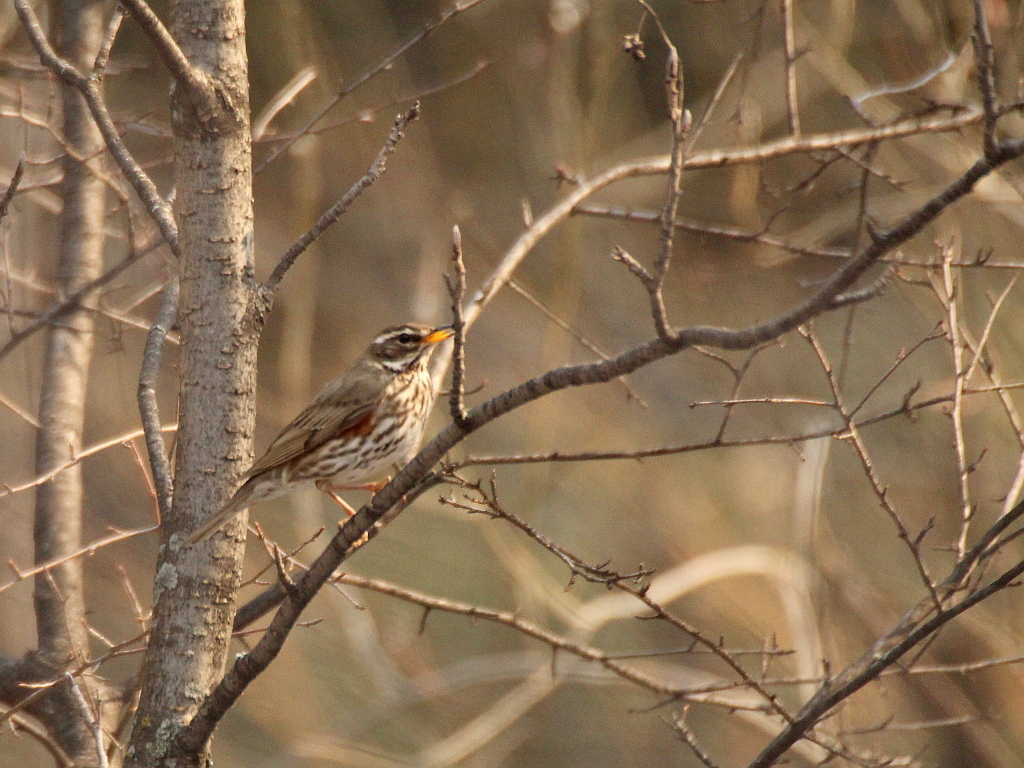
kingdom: Animalia
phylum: Chordata
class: Aves
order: Passeriformes
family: Turdidae
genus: Turdus
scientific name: Turdus iliacus
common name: Redwing
